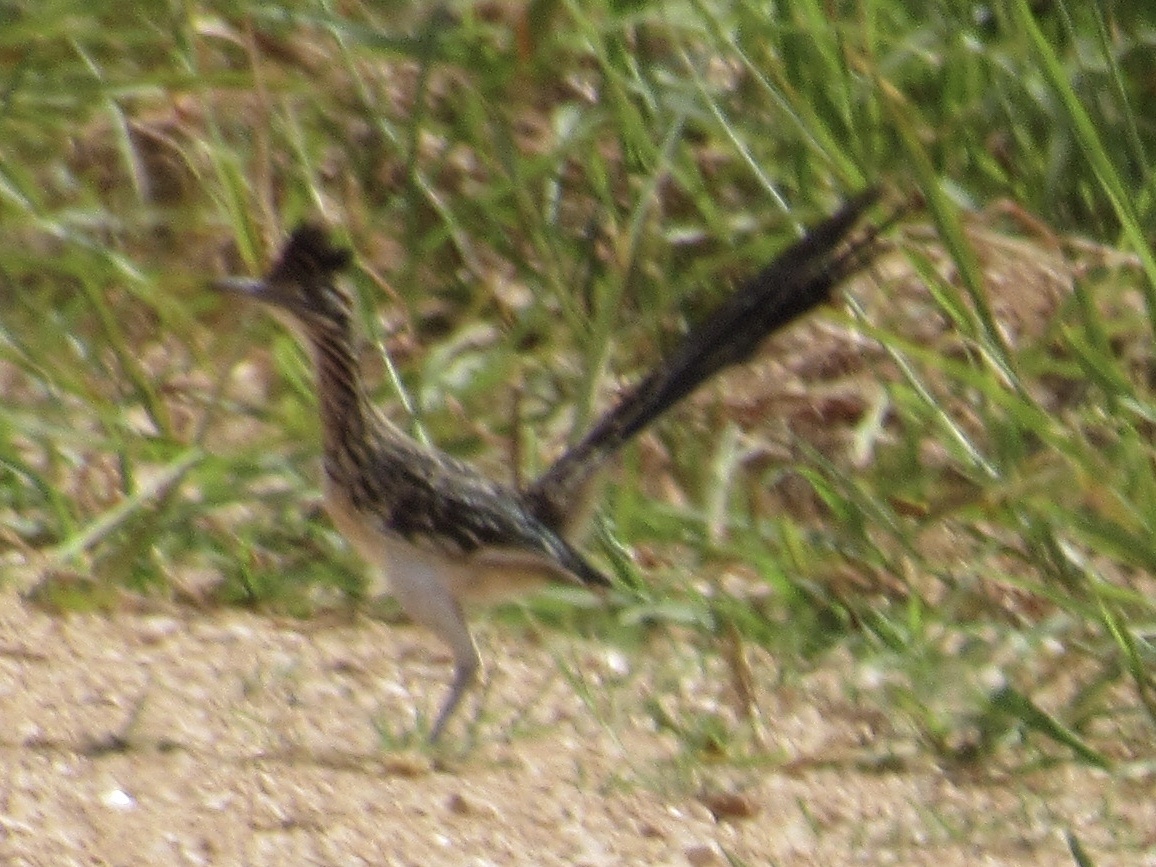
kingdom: Animalia
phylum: Chordata
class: Aves
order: Cuculiformes
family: Cuculidae
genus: Geococcyx
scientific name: Geococcyx californianus
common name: Greater roadrunner
